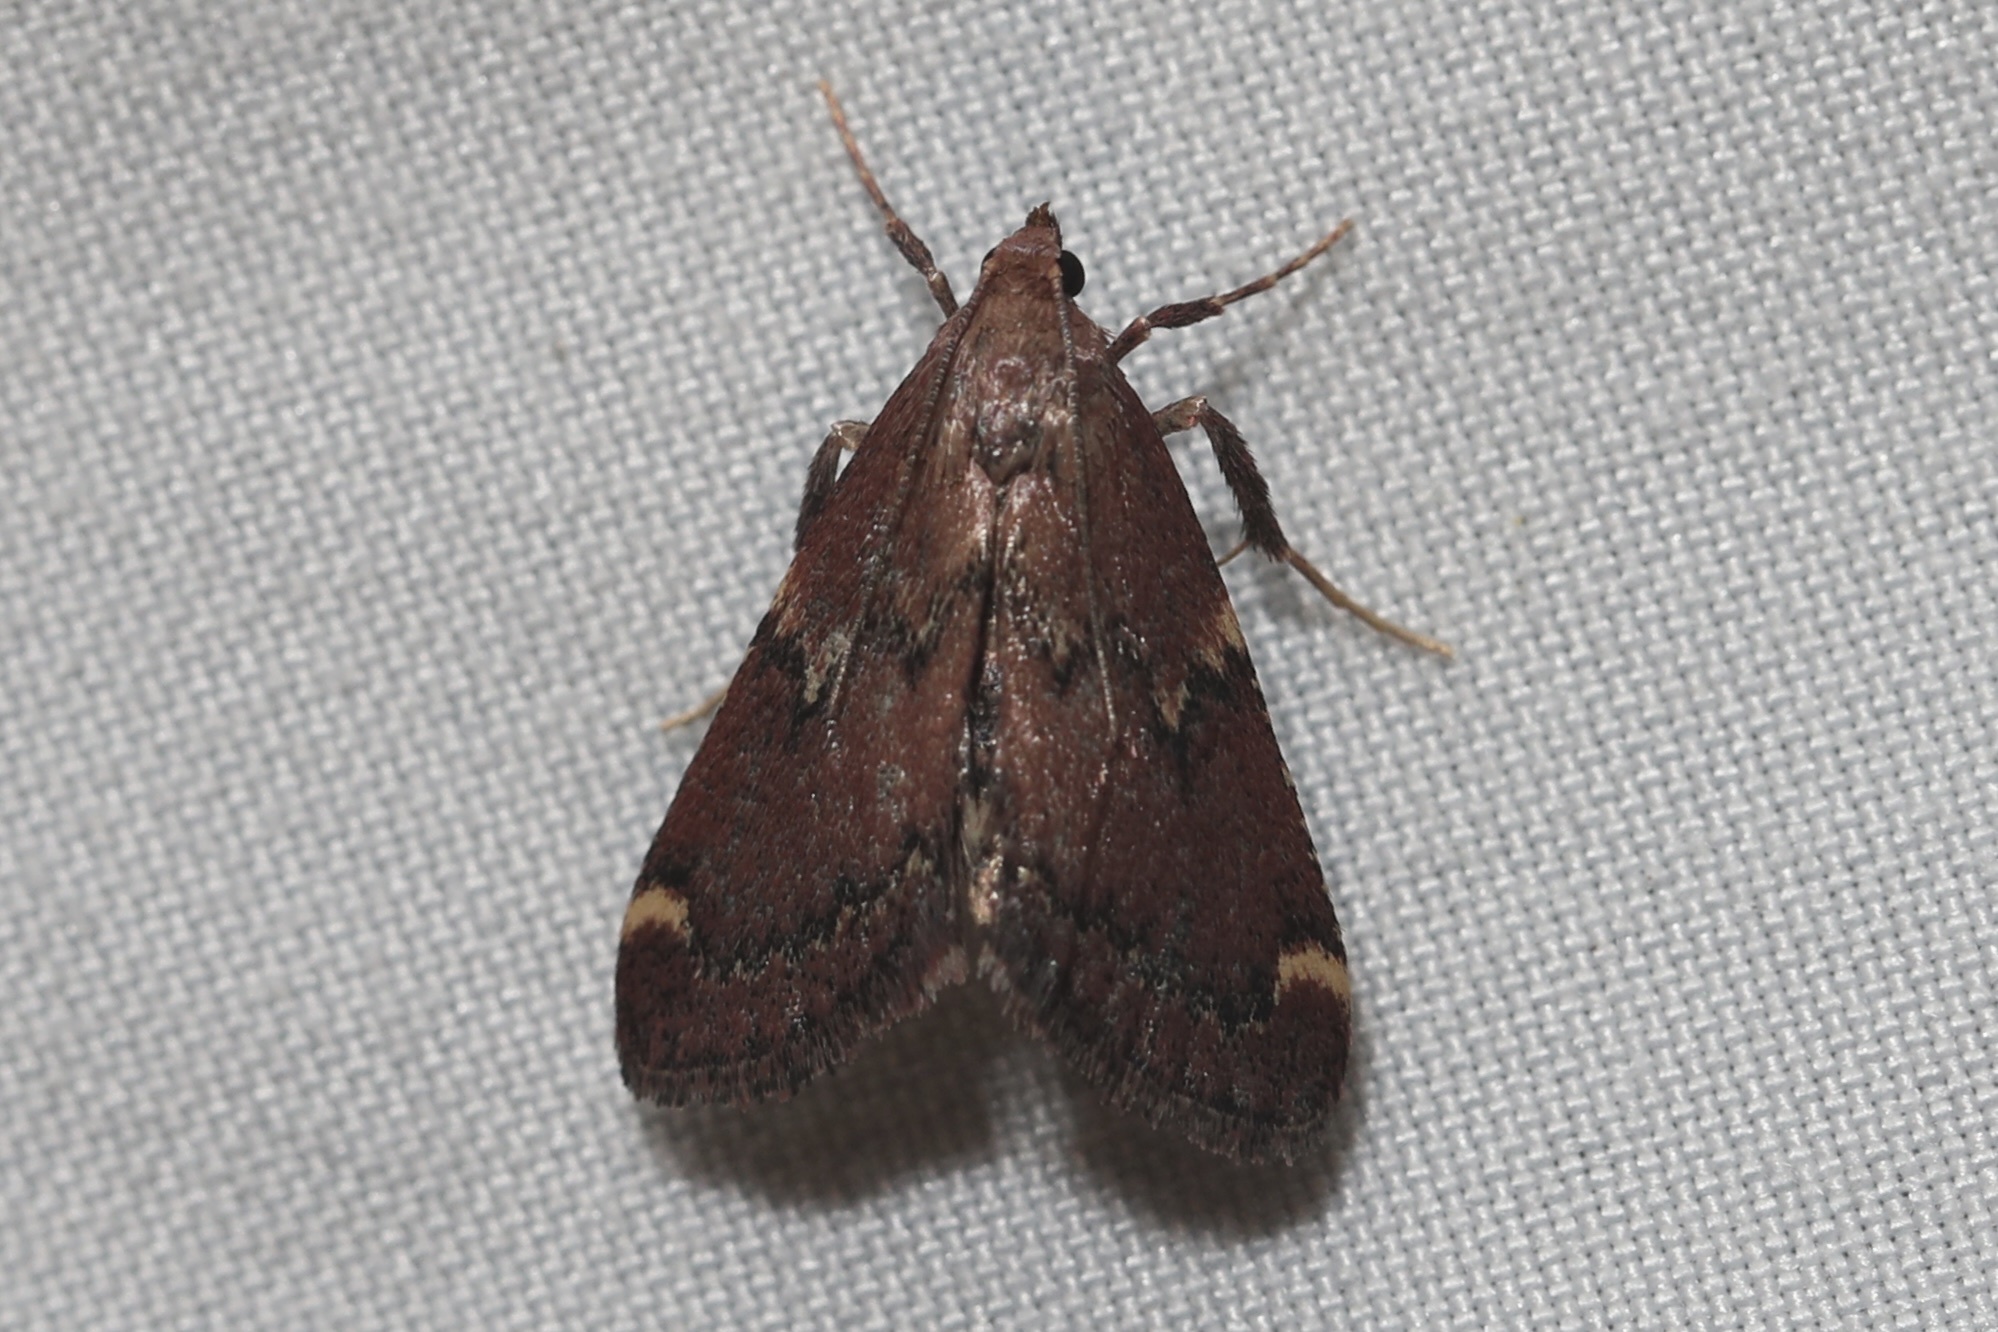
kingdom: Animalia
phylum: Arthropoda
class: Insecta
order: Lepidoptera
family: Pyralidae
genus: Hypsopygia
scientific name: Hypsopygia intermedialis
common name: Red-shawled moth
